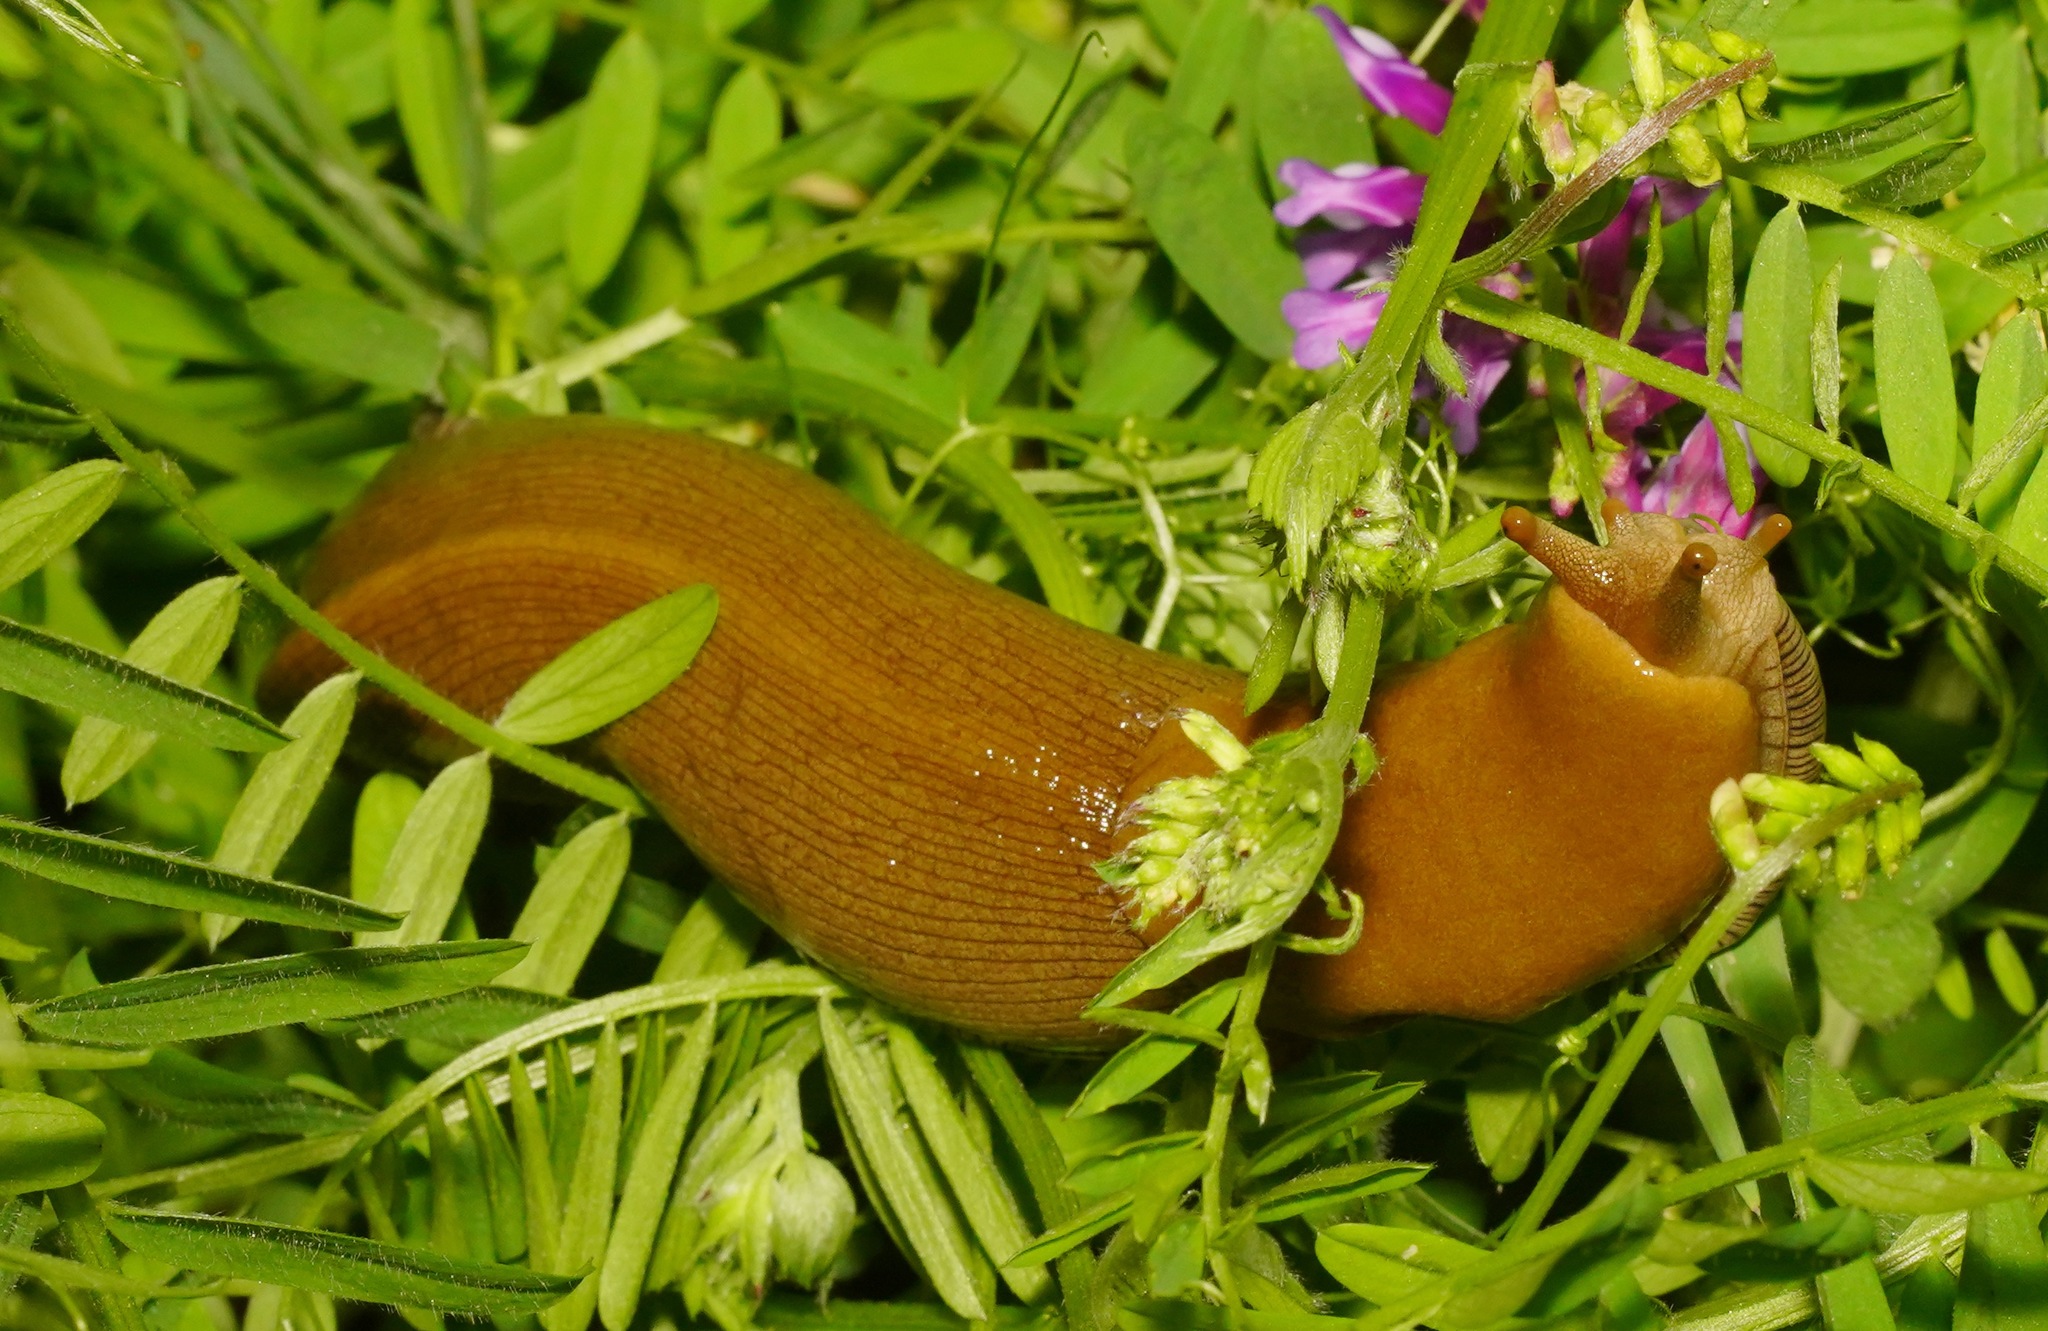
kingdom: Animalia
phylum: Mollusca
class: Gastropoda
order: Stylommatophora
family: Ariolimacidae
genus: Ariolimax
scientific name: Ariolimax buttoni
